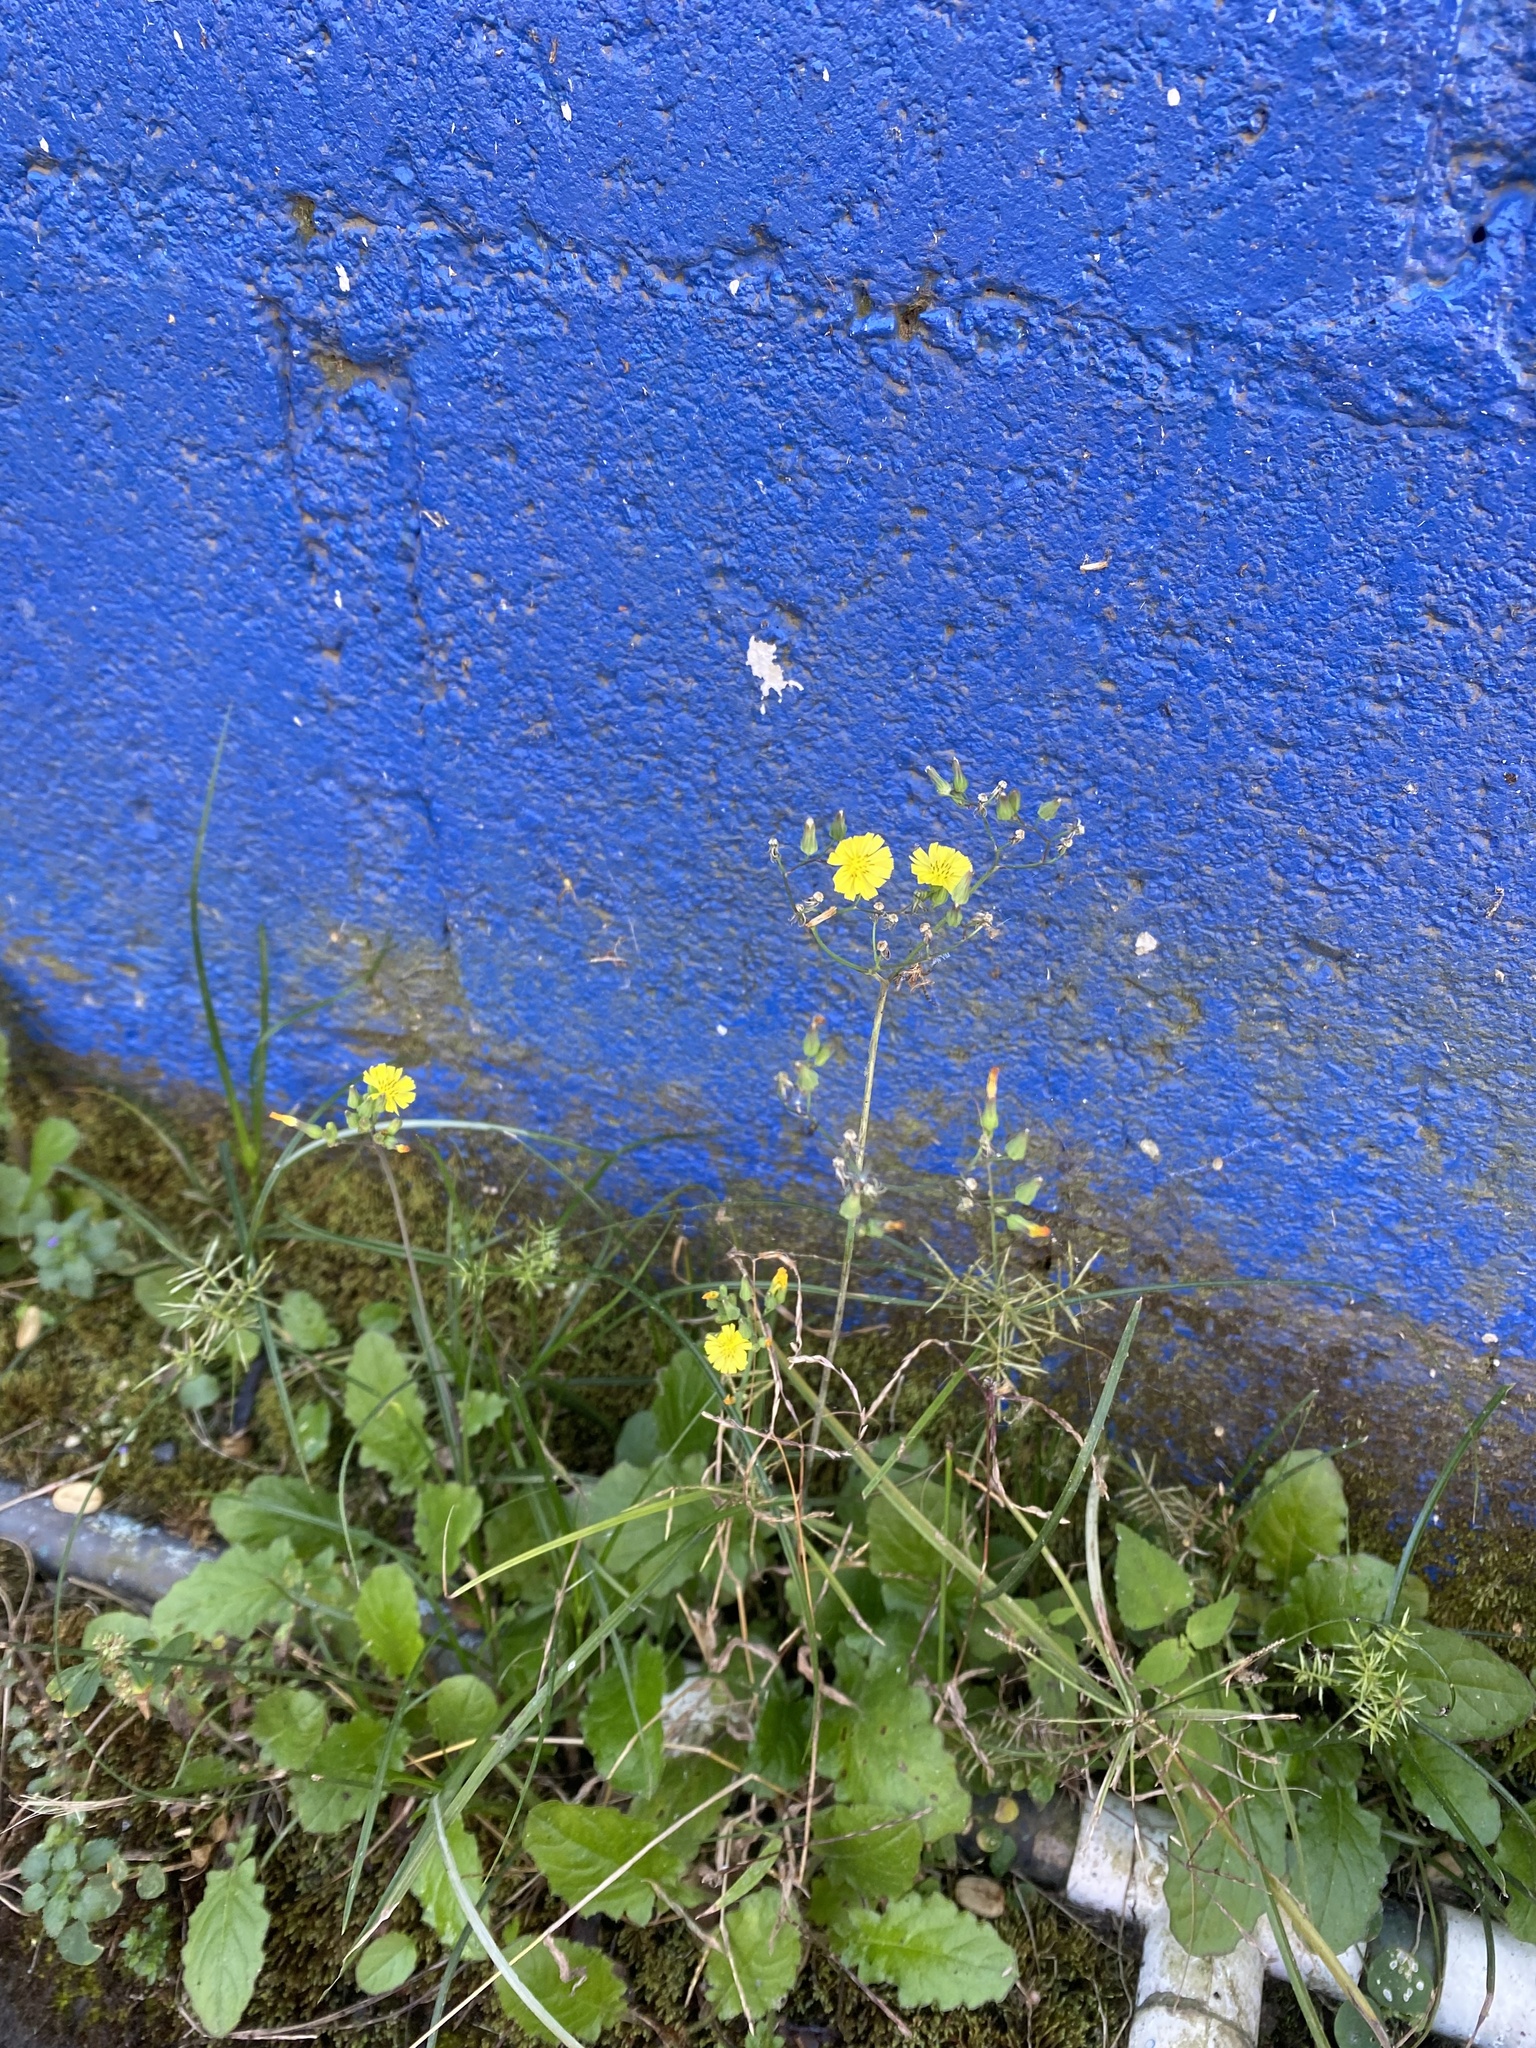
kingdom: Plantae
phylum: Tracheophyta
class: Magnoliopsida
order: Asterales
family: Asteraceae
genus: Youngia
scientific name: Youngia japonica
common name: Oriental false hawksbeard
